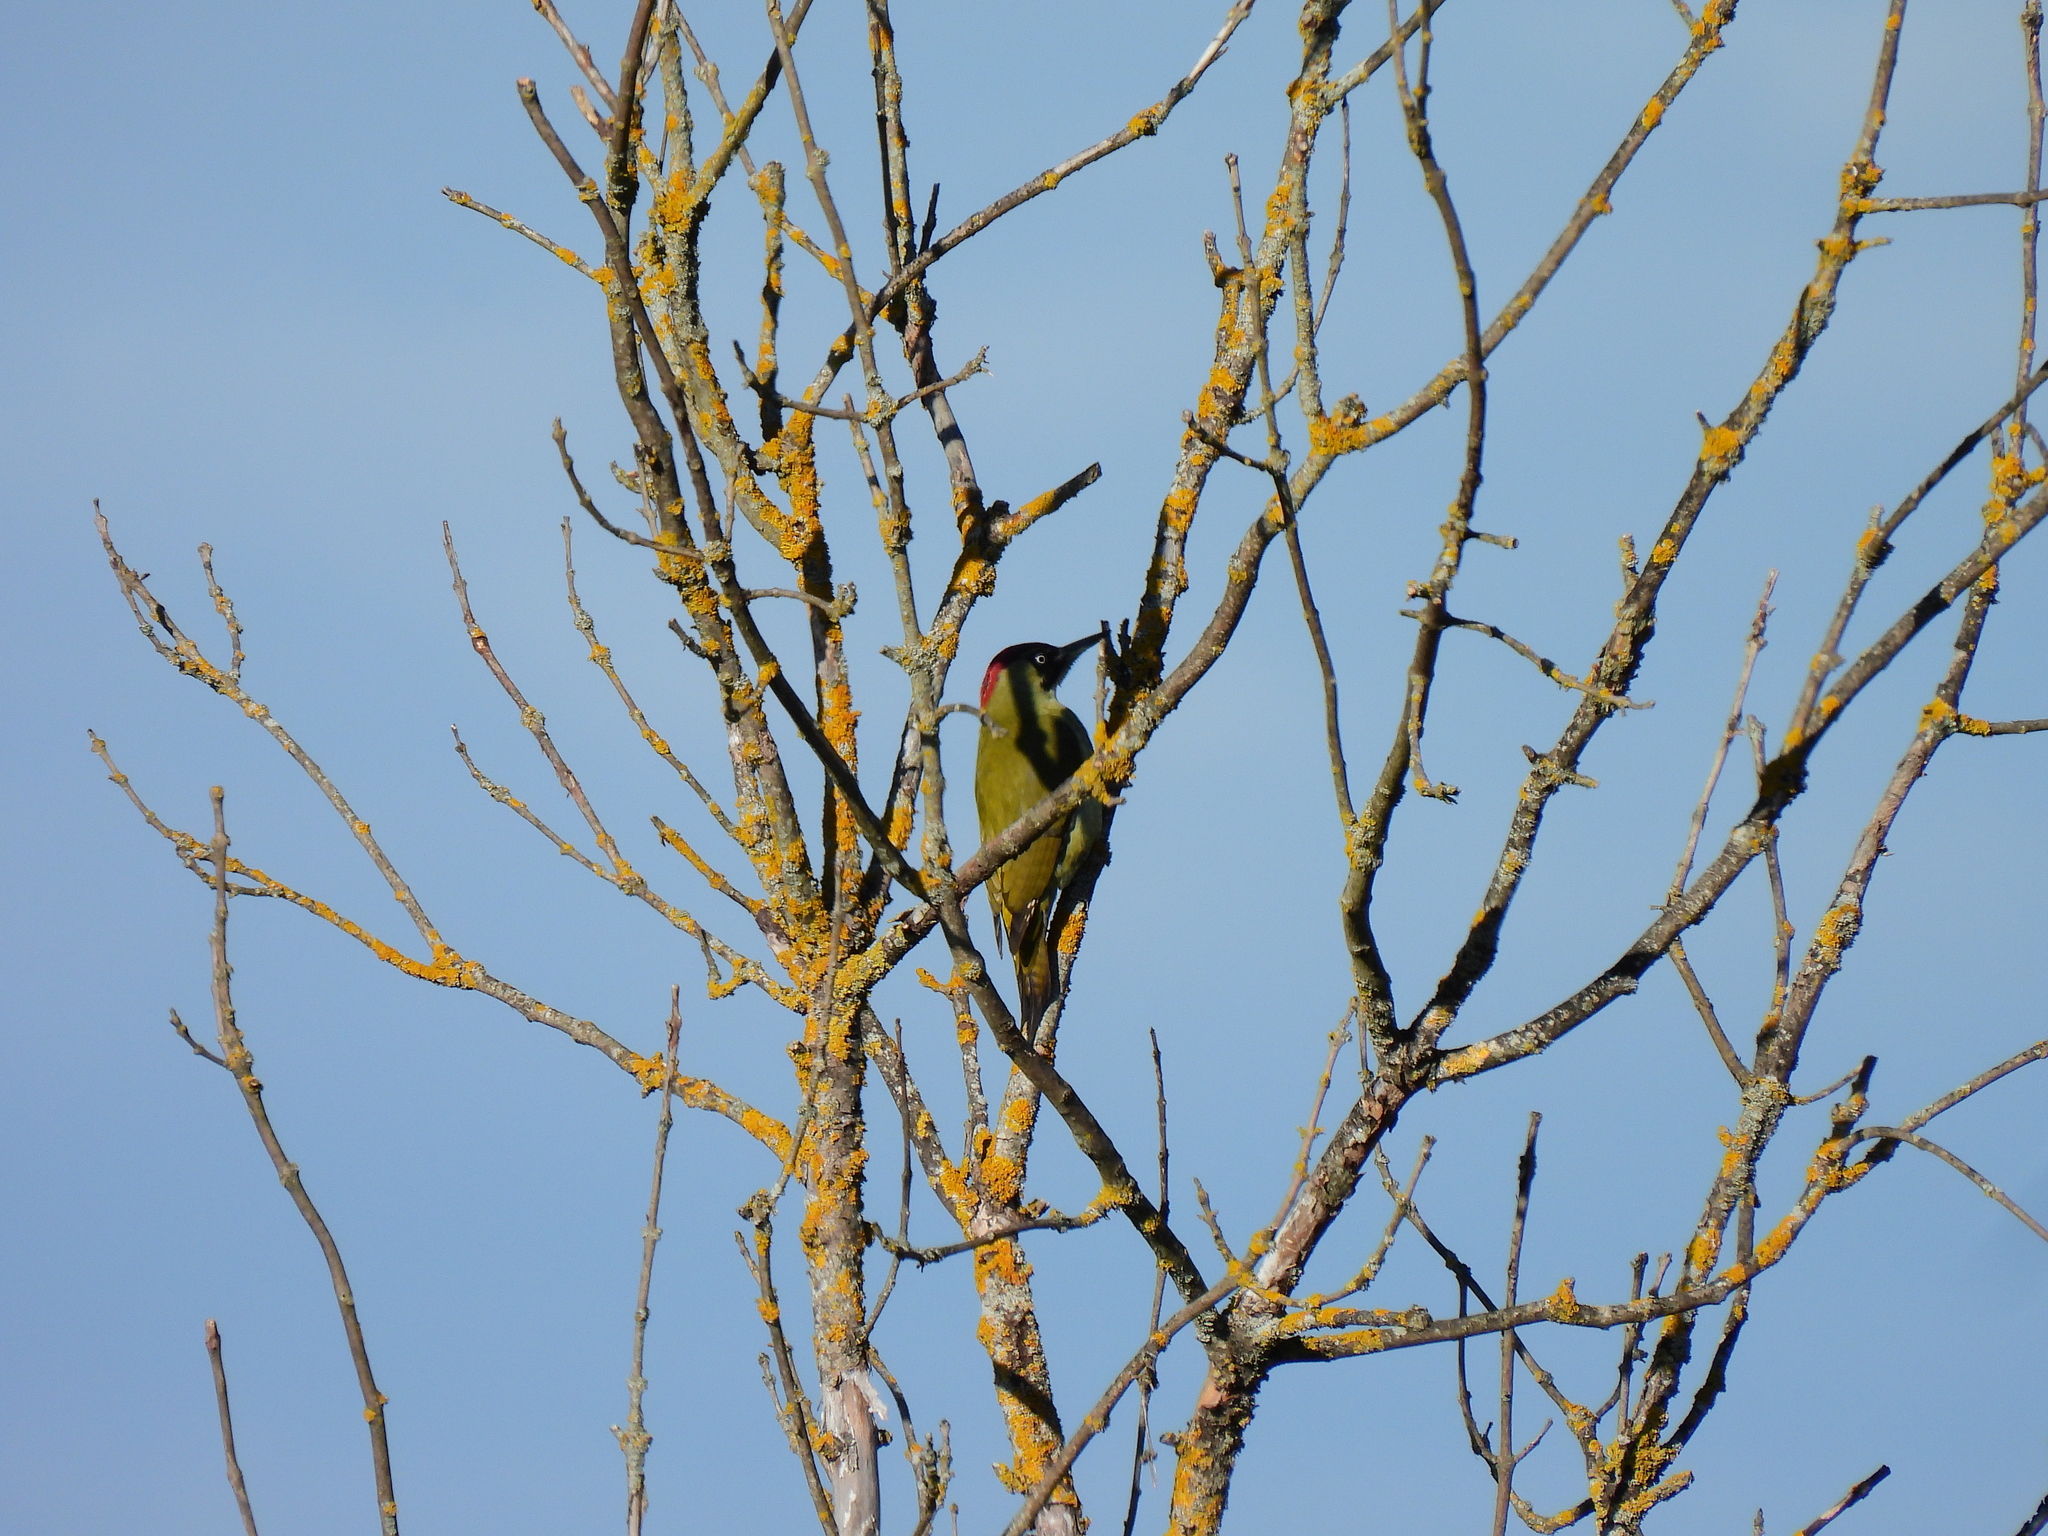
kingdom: Animalia
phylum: Chordata
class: Aves
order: Piciformes
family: Picidae
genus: Picus
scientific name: Picus viridis
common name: European green woodpecker
